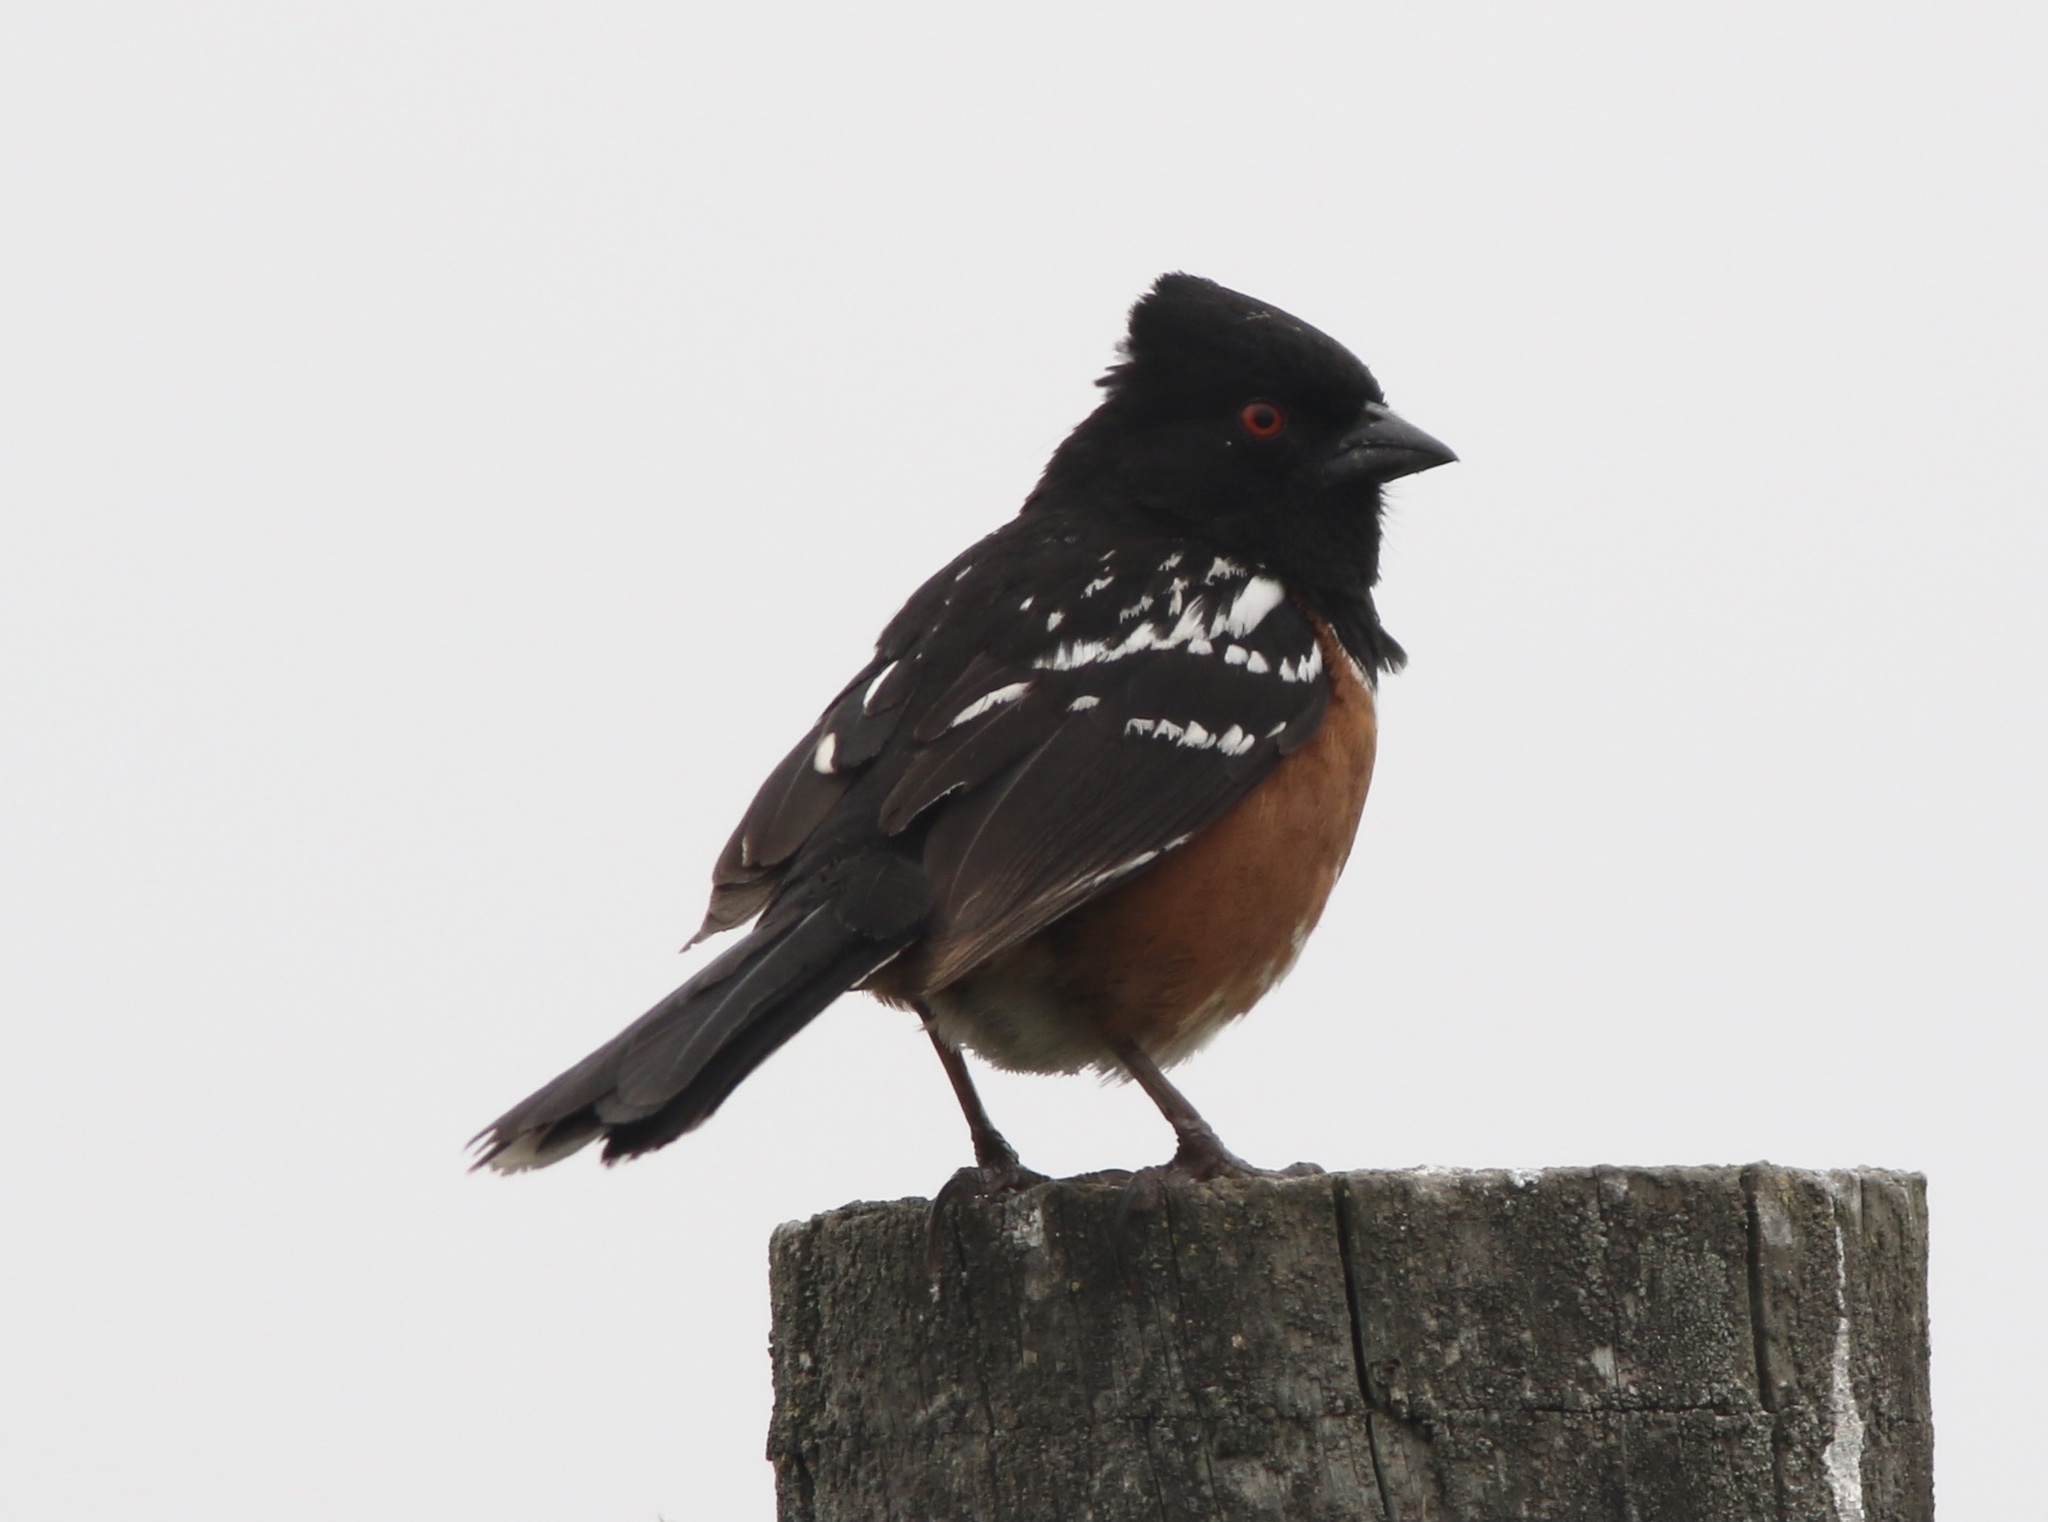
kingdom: Animalia
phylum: Chordata
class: Aves
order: Passeriformes
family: Passerellidae
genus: Pipilo
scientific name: Pipilo maculatus
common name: Spotted towhee
